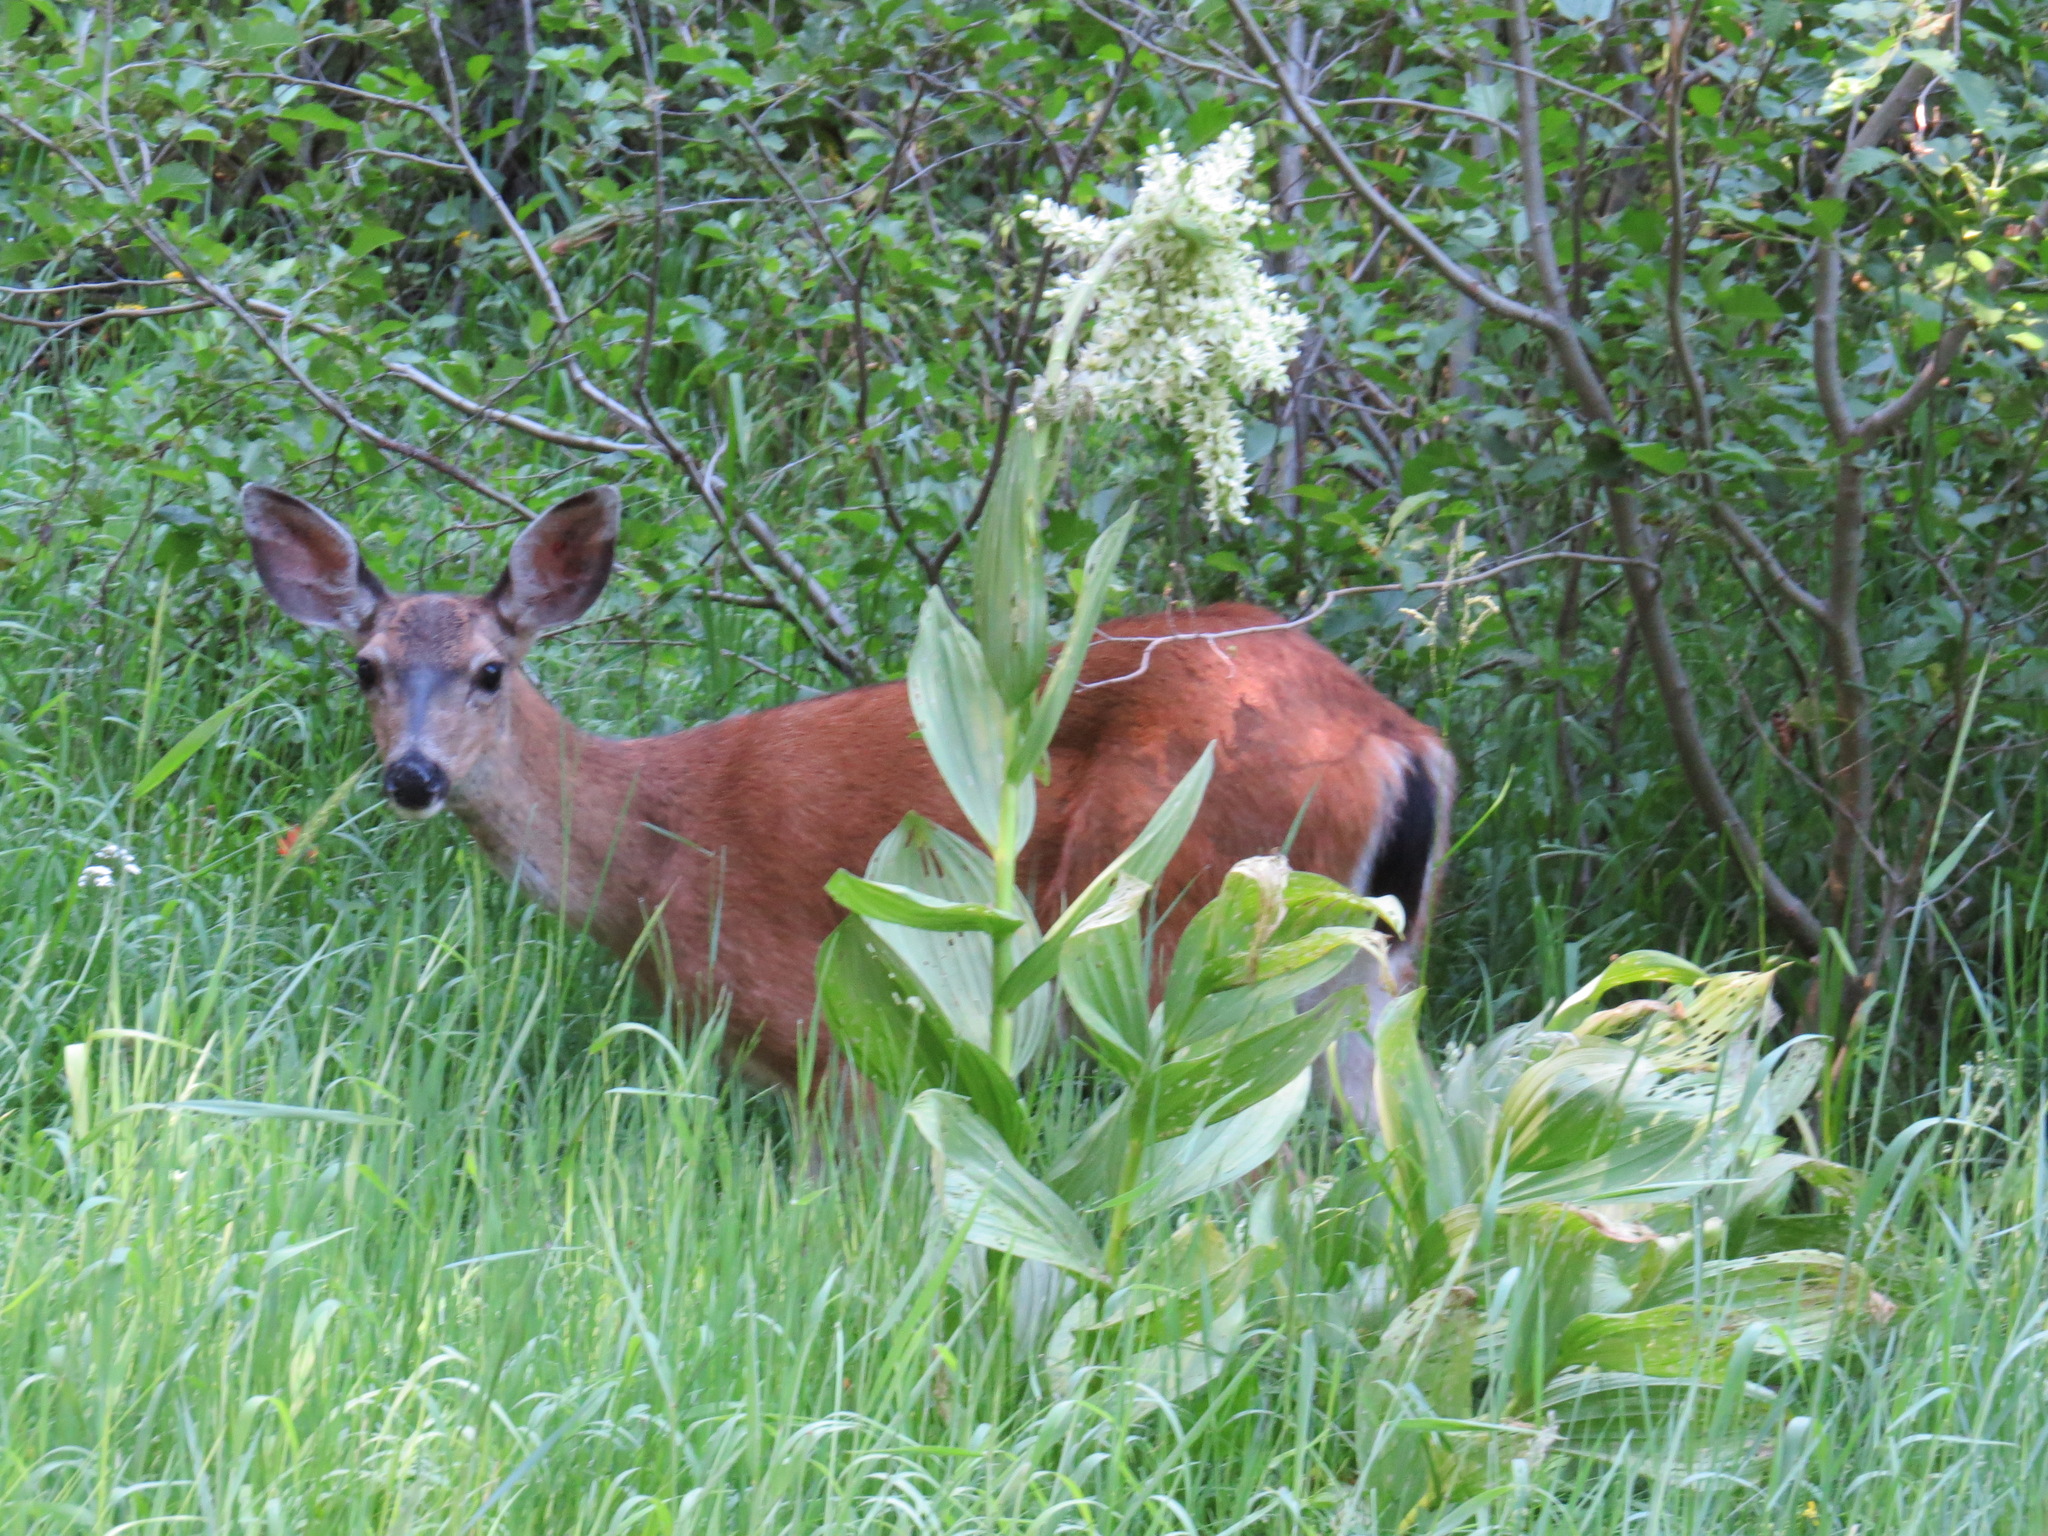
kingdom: Animalia
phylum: Chordata
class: Mammalia
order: Artiodactyla
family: Cervidae
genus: Odocoileus
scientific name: Odocoileus hemionus
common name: Mule deer
